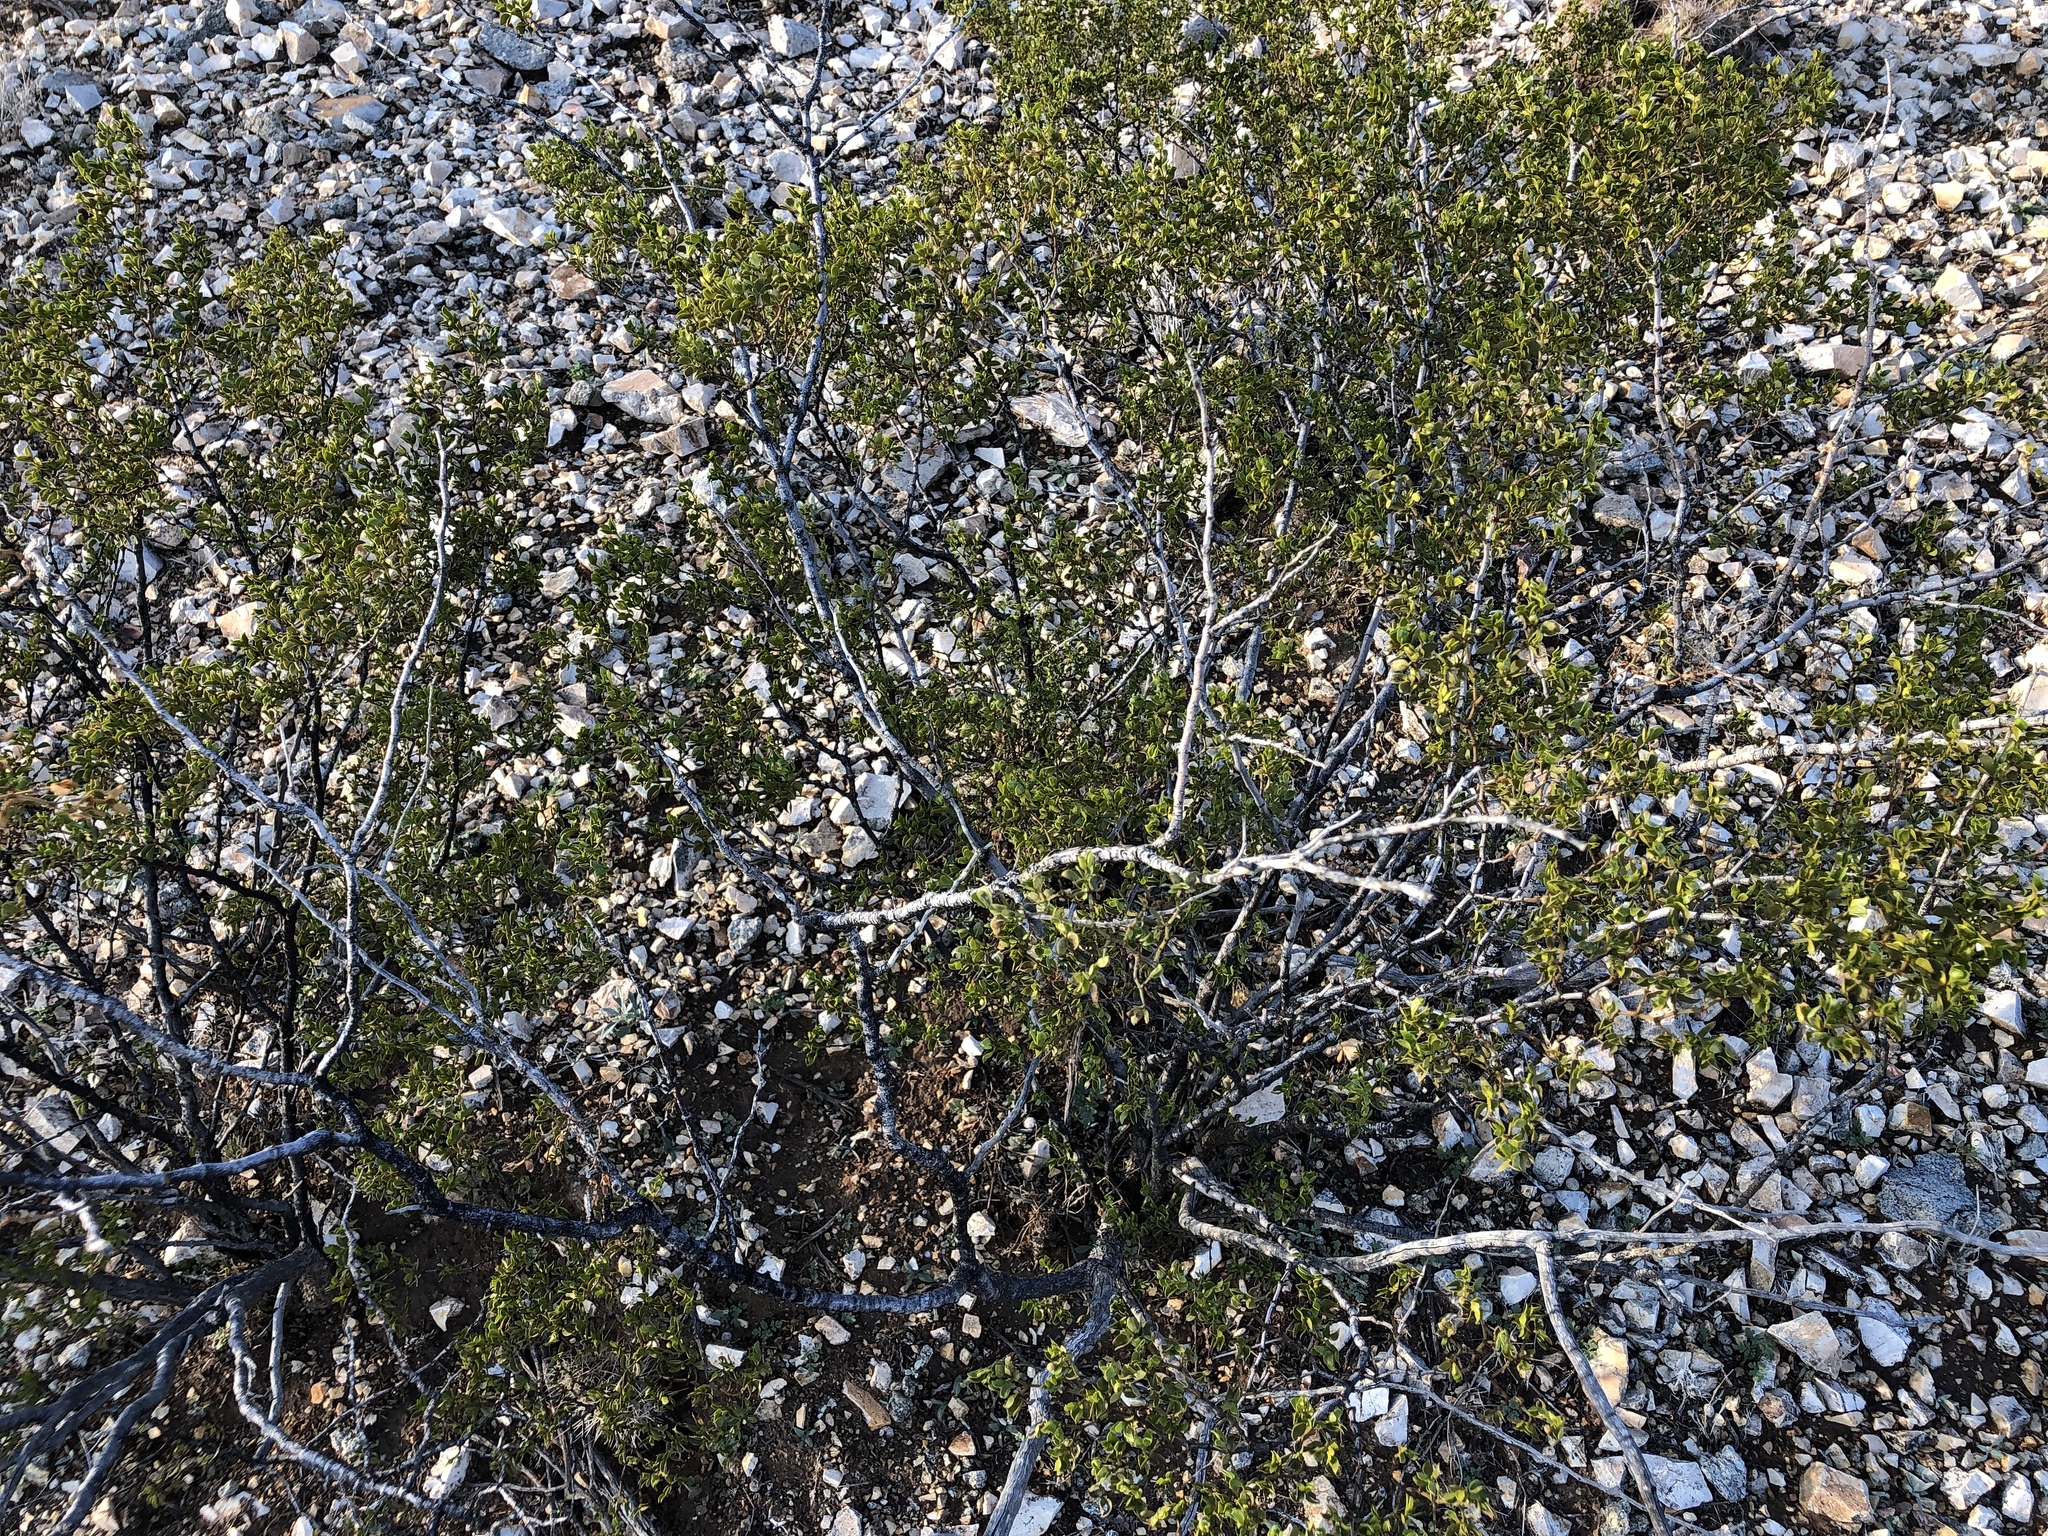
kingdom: Plantae
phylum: Tracheophyta
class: Magnoliopsida
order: Zygophyllales
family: Zygophyllaceae
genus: Larrea
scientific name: Larrea tridentata
